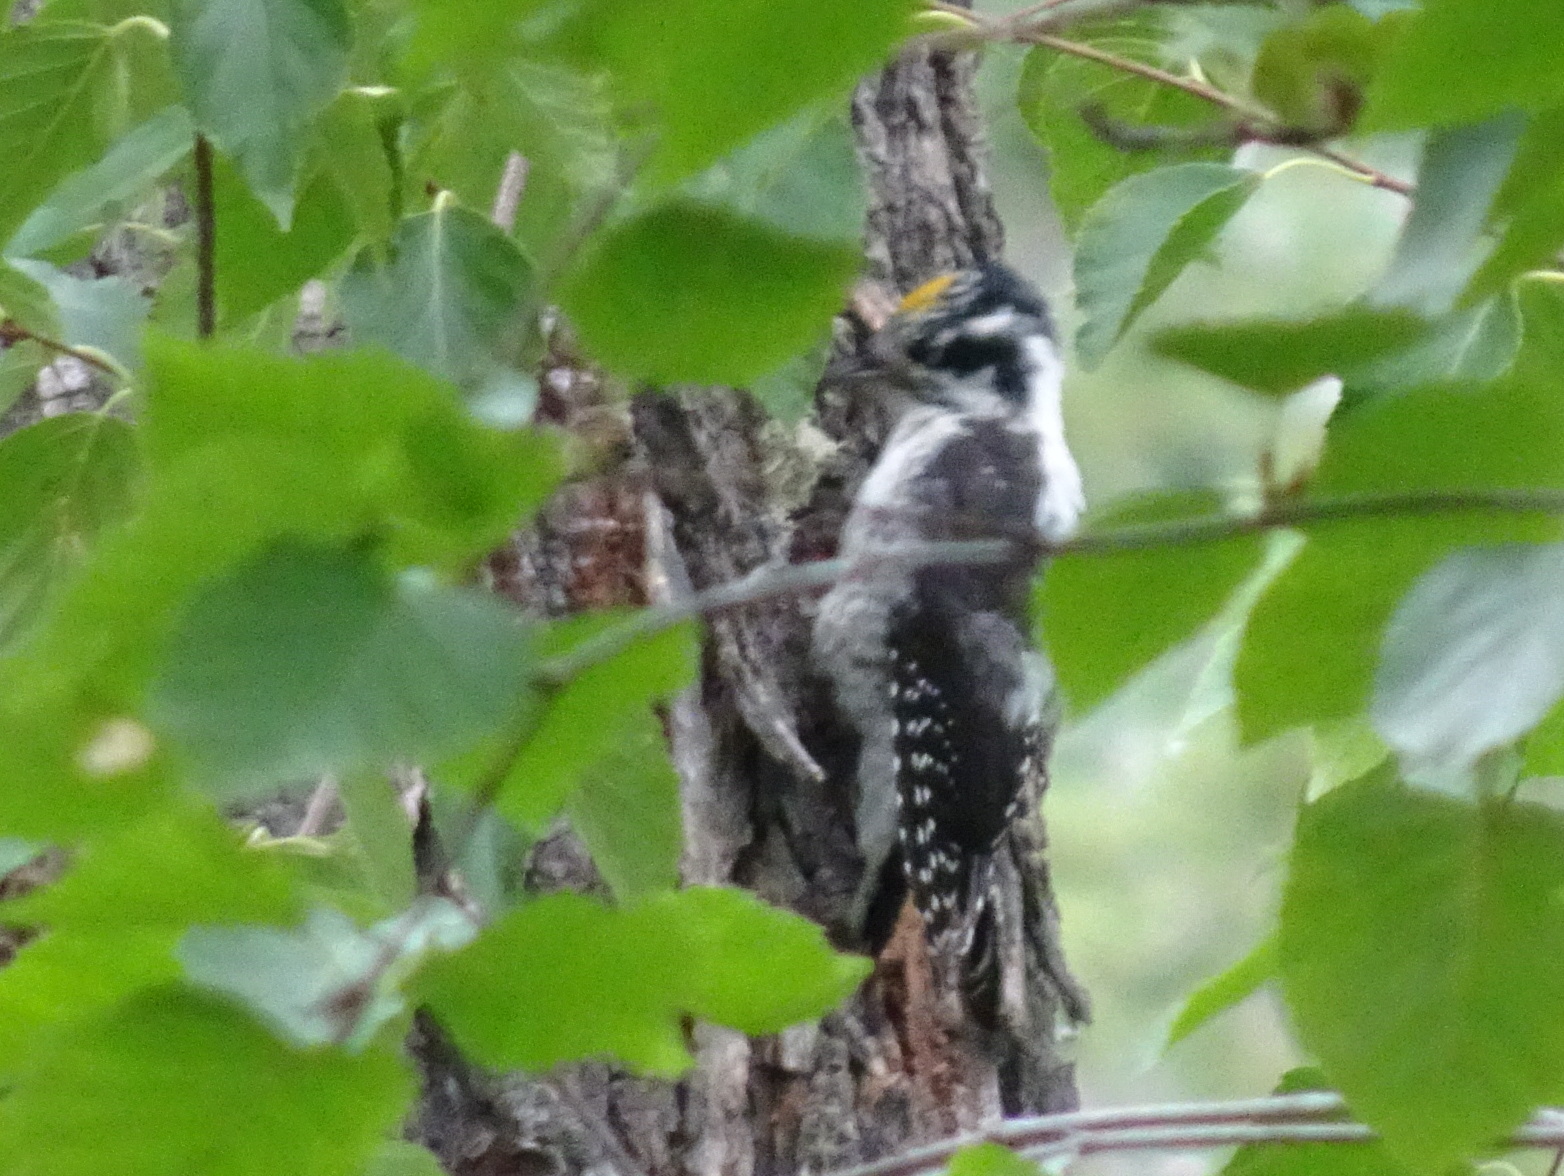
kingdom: Animalia
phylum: Chordata
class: Aves
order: Piciformes
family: Picidae
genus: Picoides
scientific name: Picoides dorsalis
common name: American three-toed woodpecker
